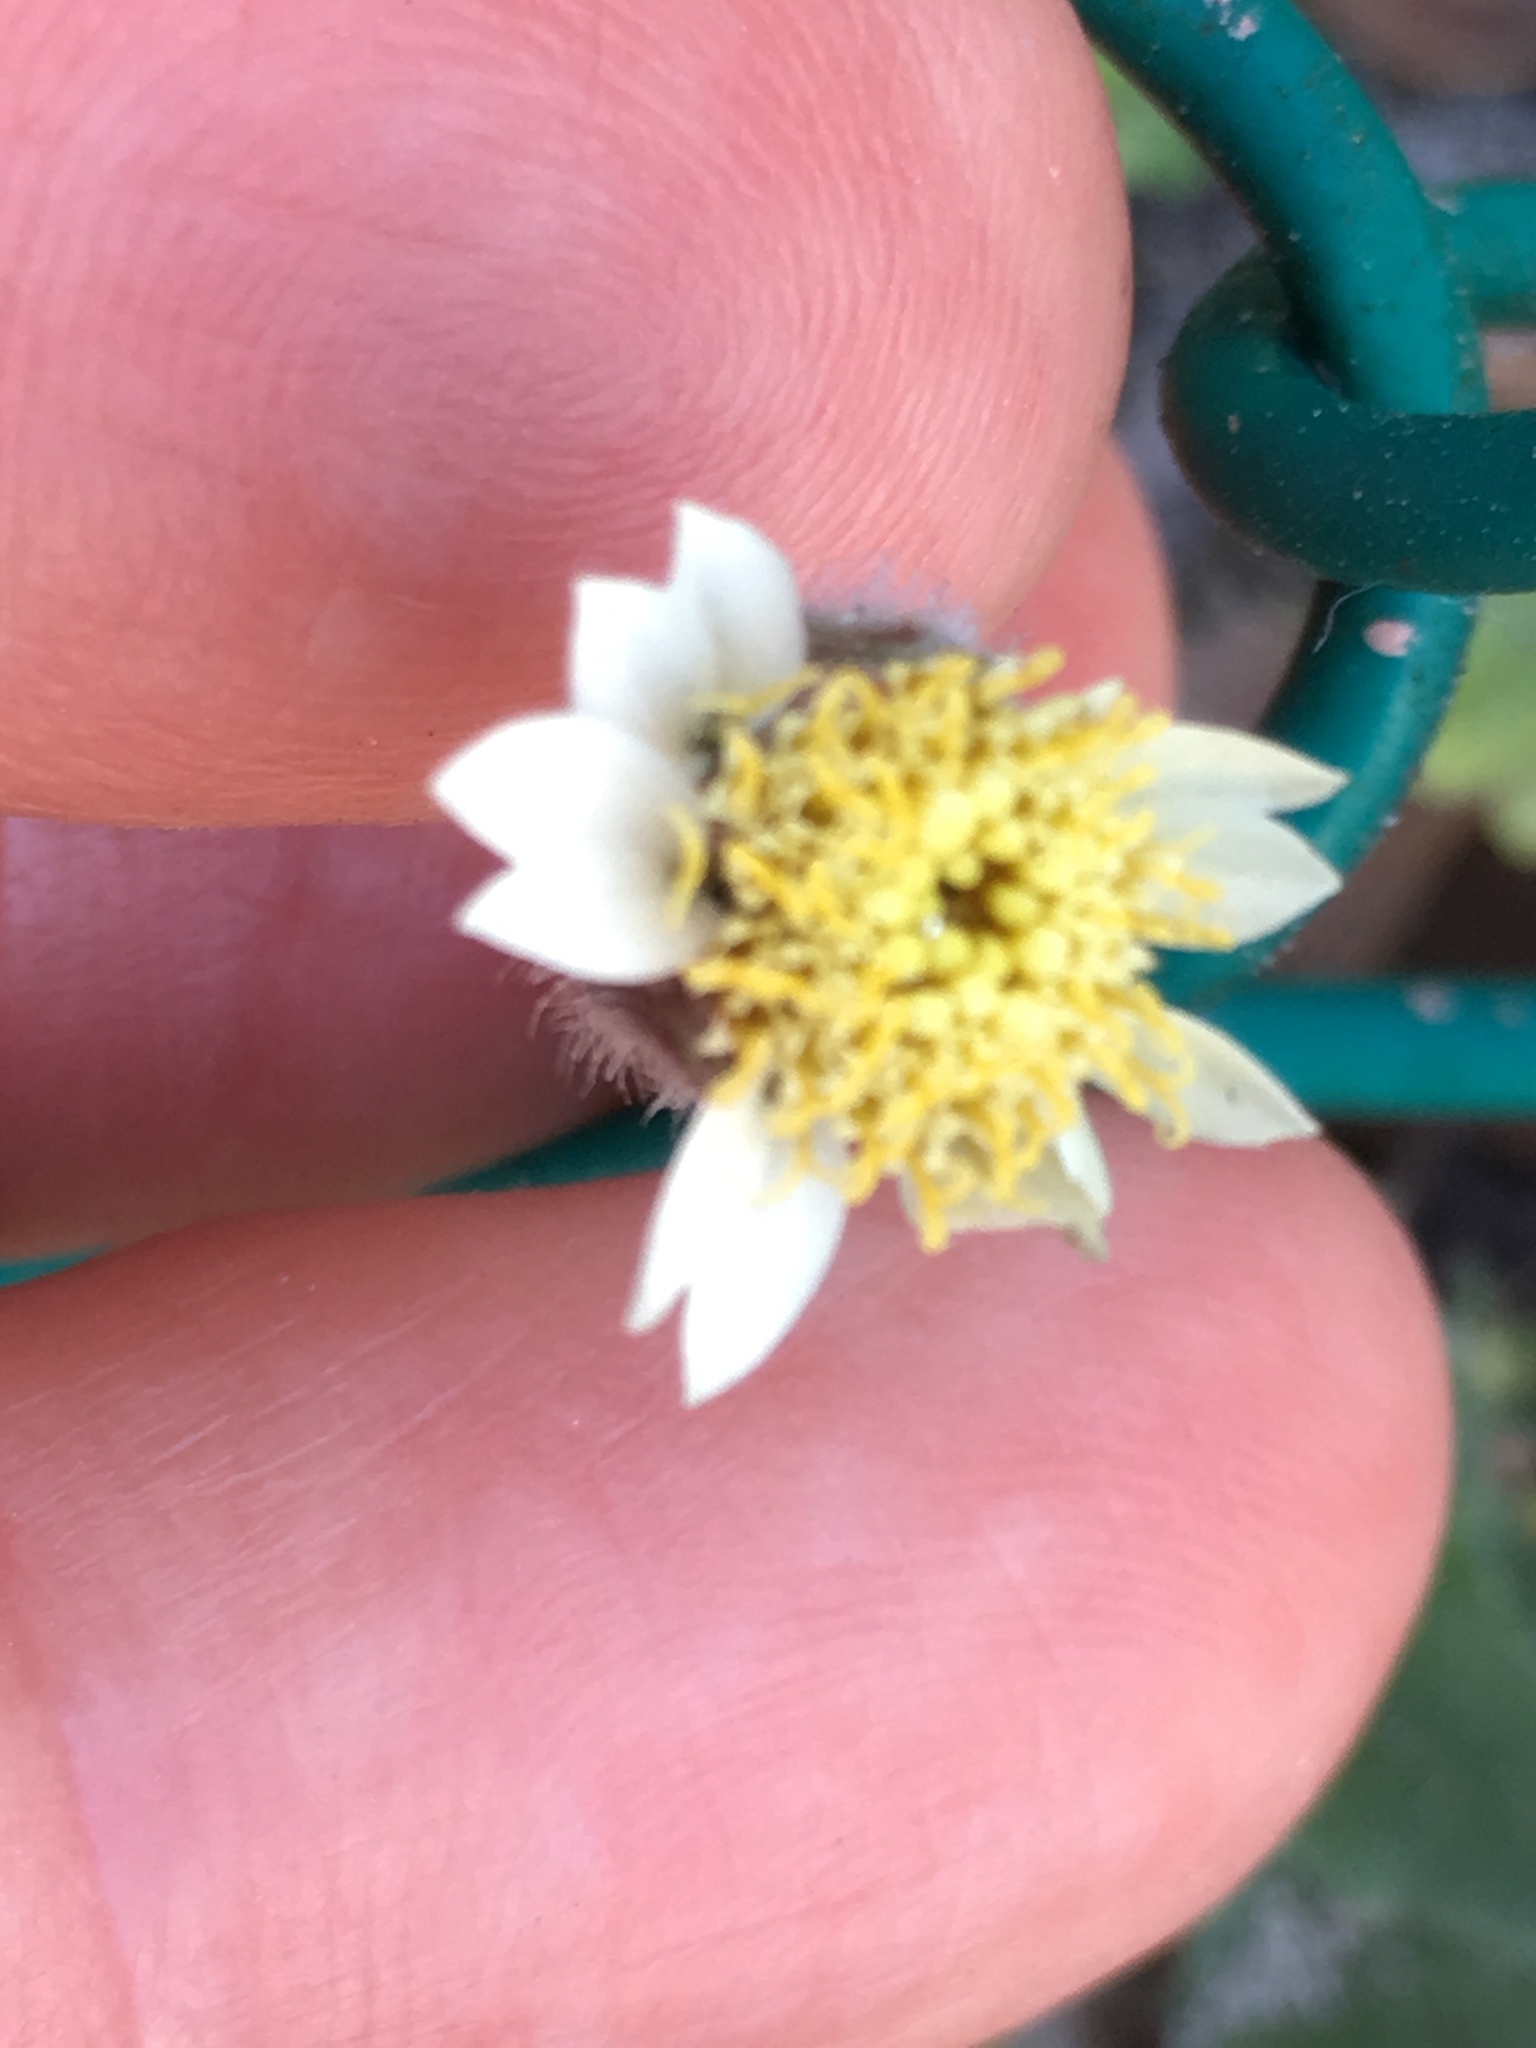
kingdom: Plantae
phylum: Tracheophyta
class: Magnoliopsida
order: Asterales
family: Asteraceae
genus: Tridax
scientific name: Tridax procumbens
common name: Coatbuttons
